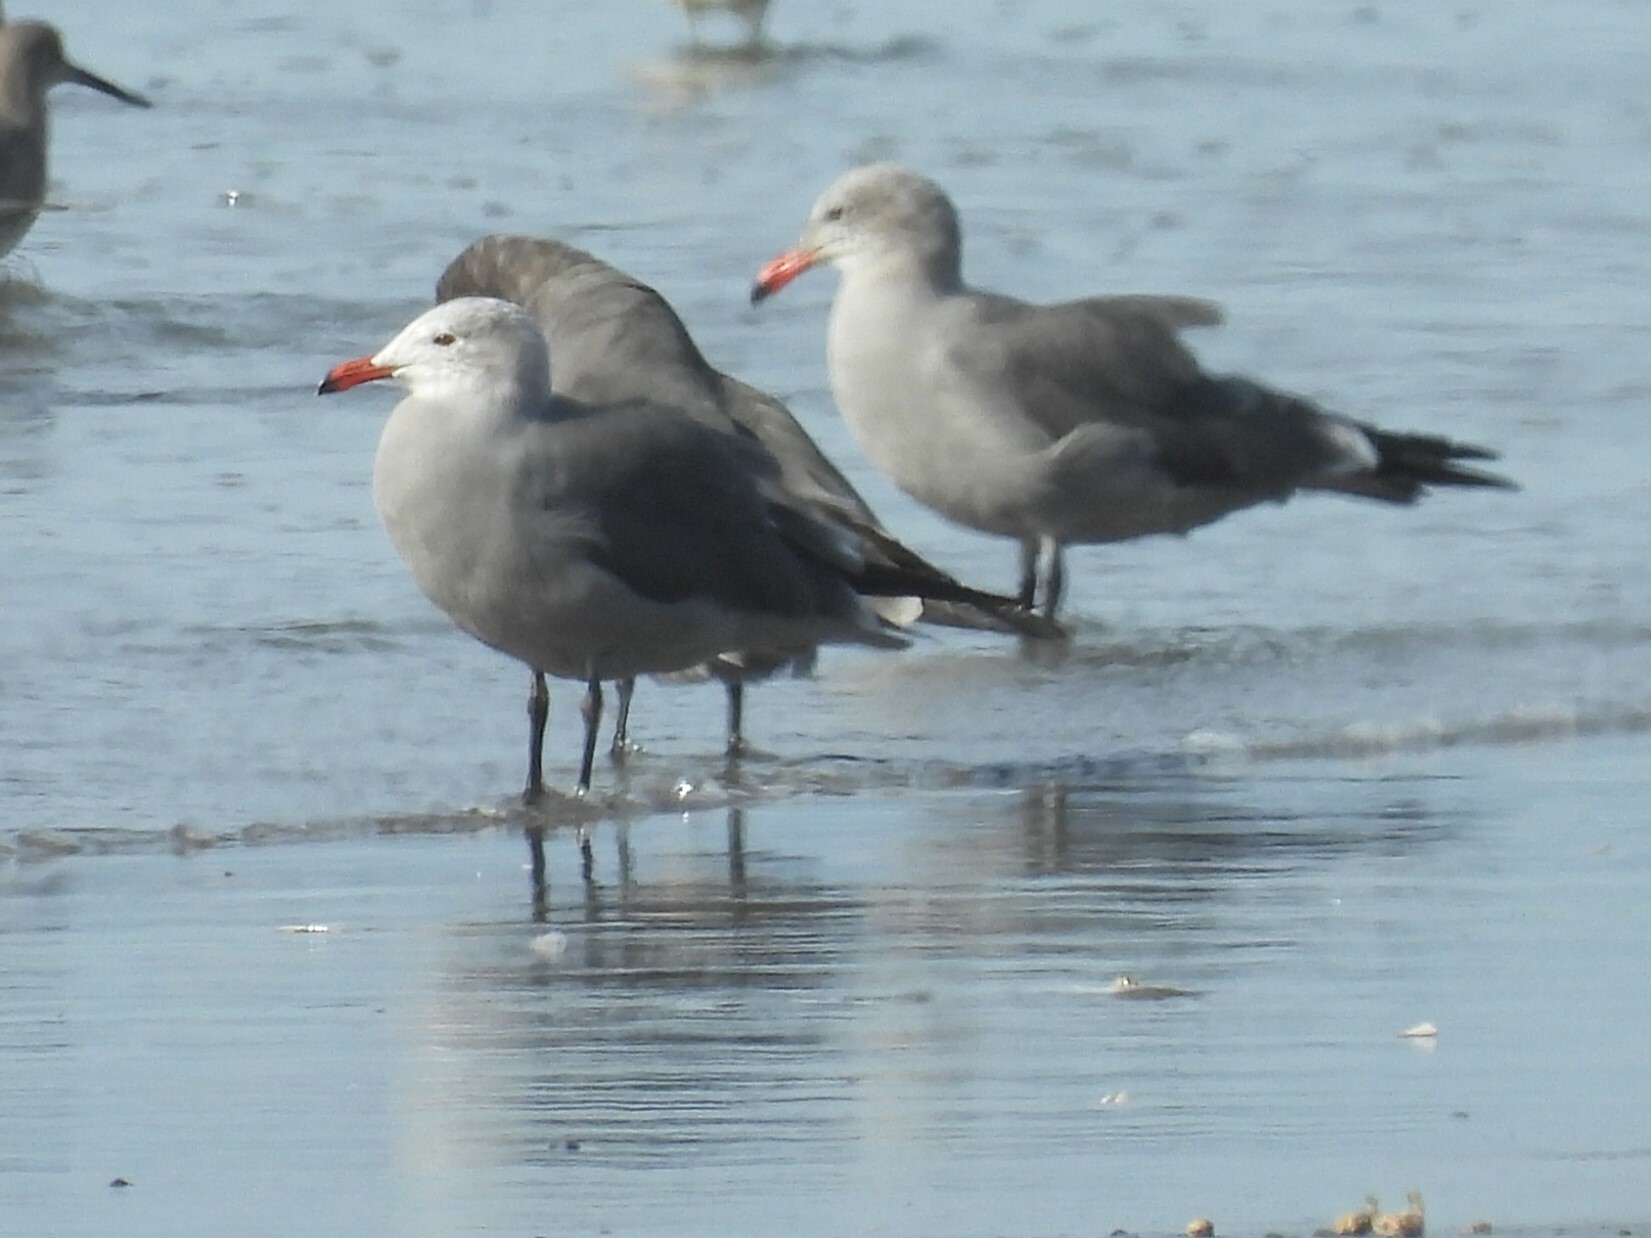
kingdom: Animalia
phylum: Chordata
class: Aves
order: Charadriiformes
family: Laridae
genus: Larus
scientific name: Larus heermanni
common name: Heermann's gull
